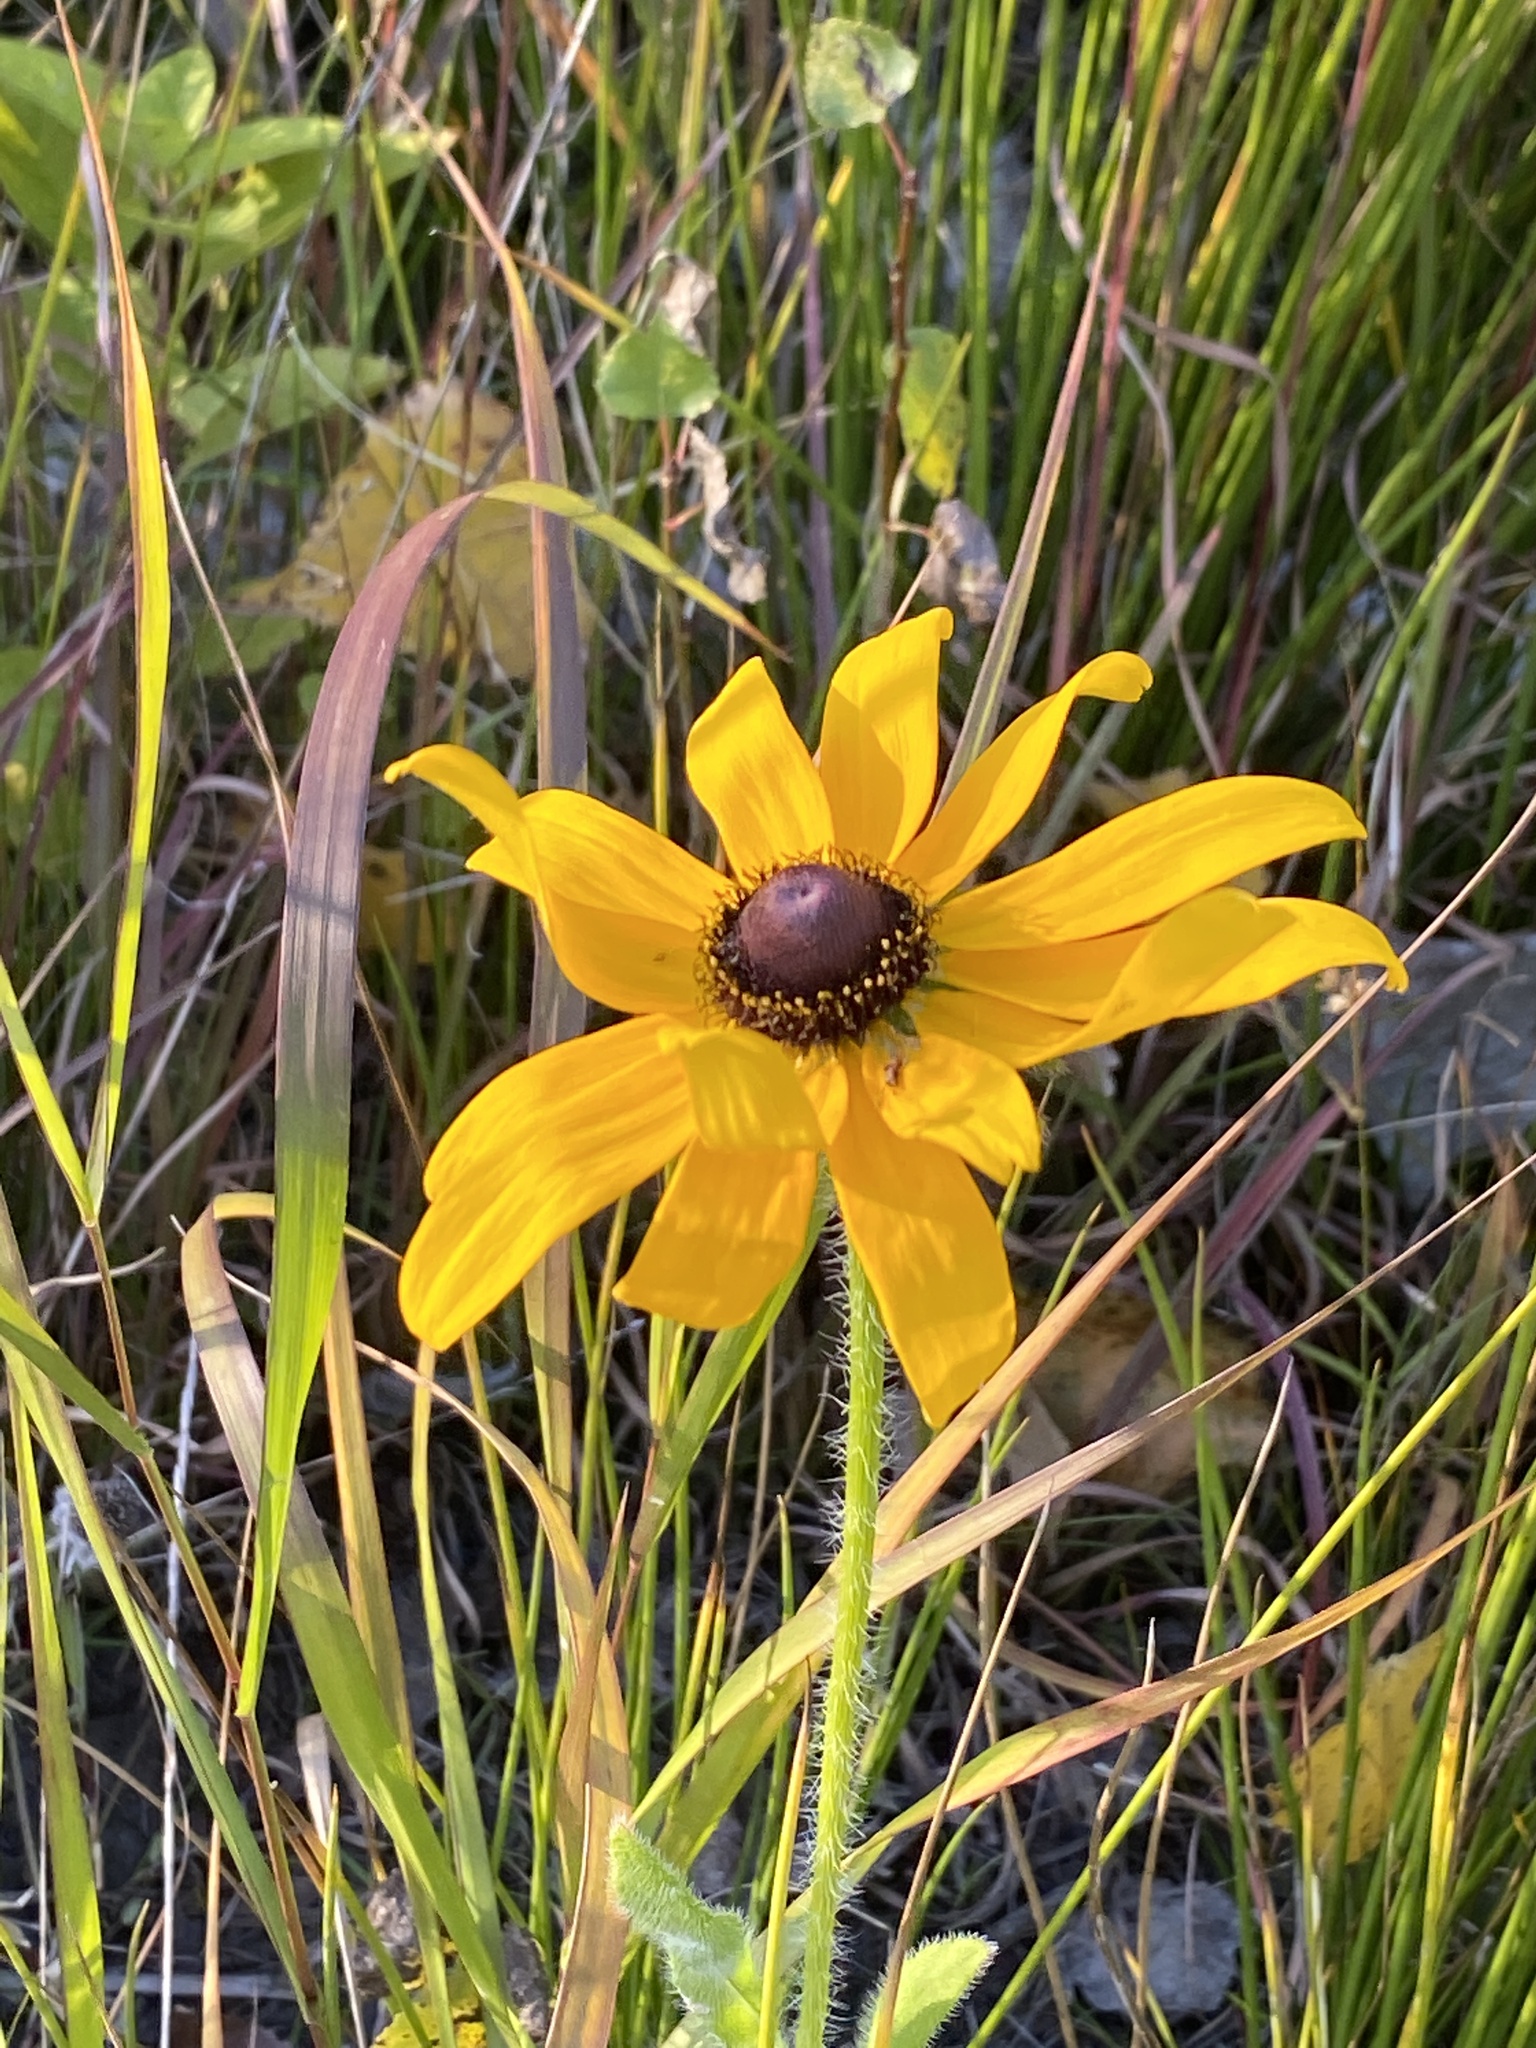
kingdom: Plantae
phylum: Tracheophyta
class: Magnoliopsida
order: Asterales
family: Asteraceae
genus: Rudbeckia
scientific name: Rudbeckia hirta
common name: Black-eyed-susan
